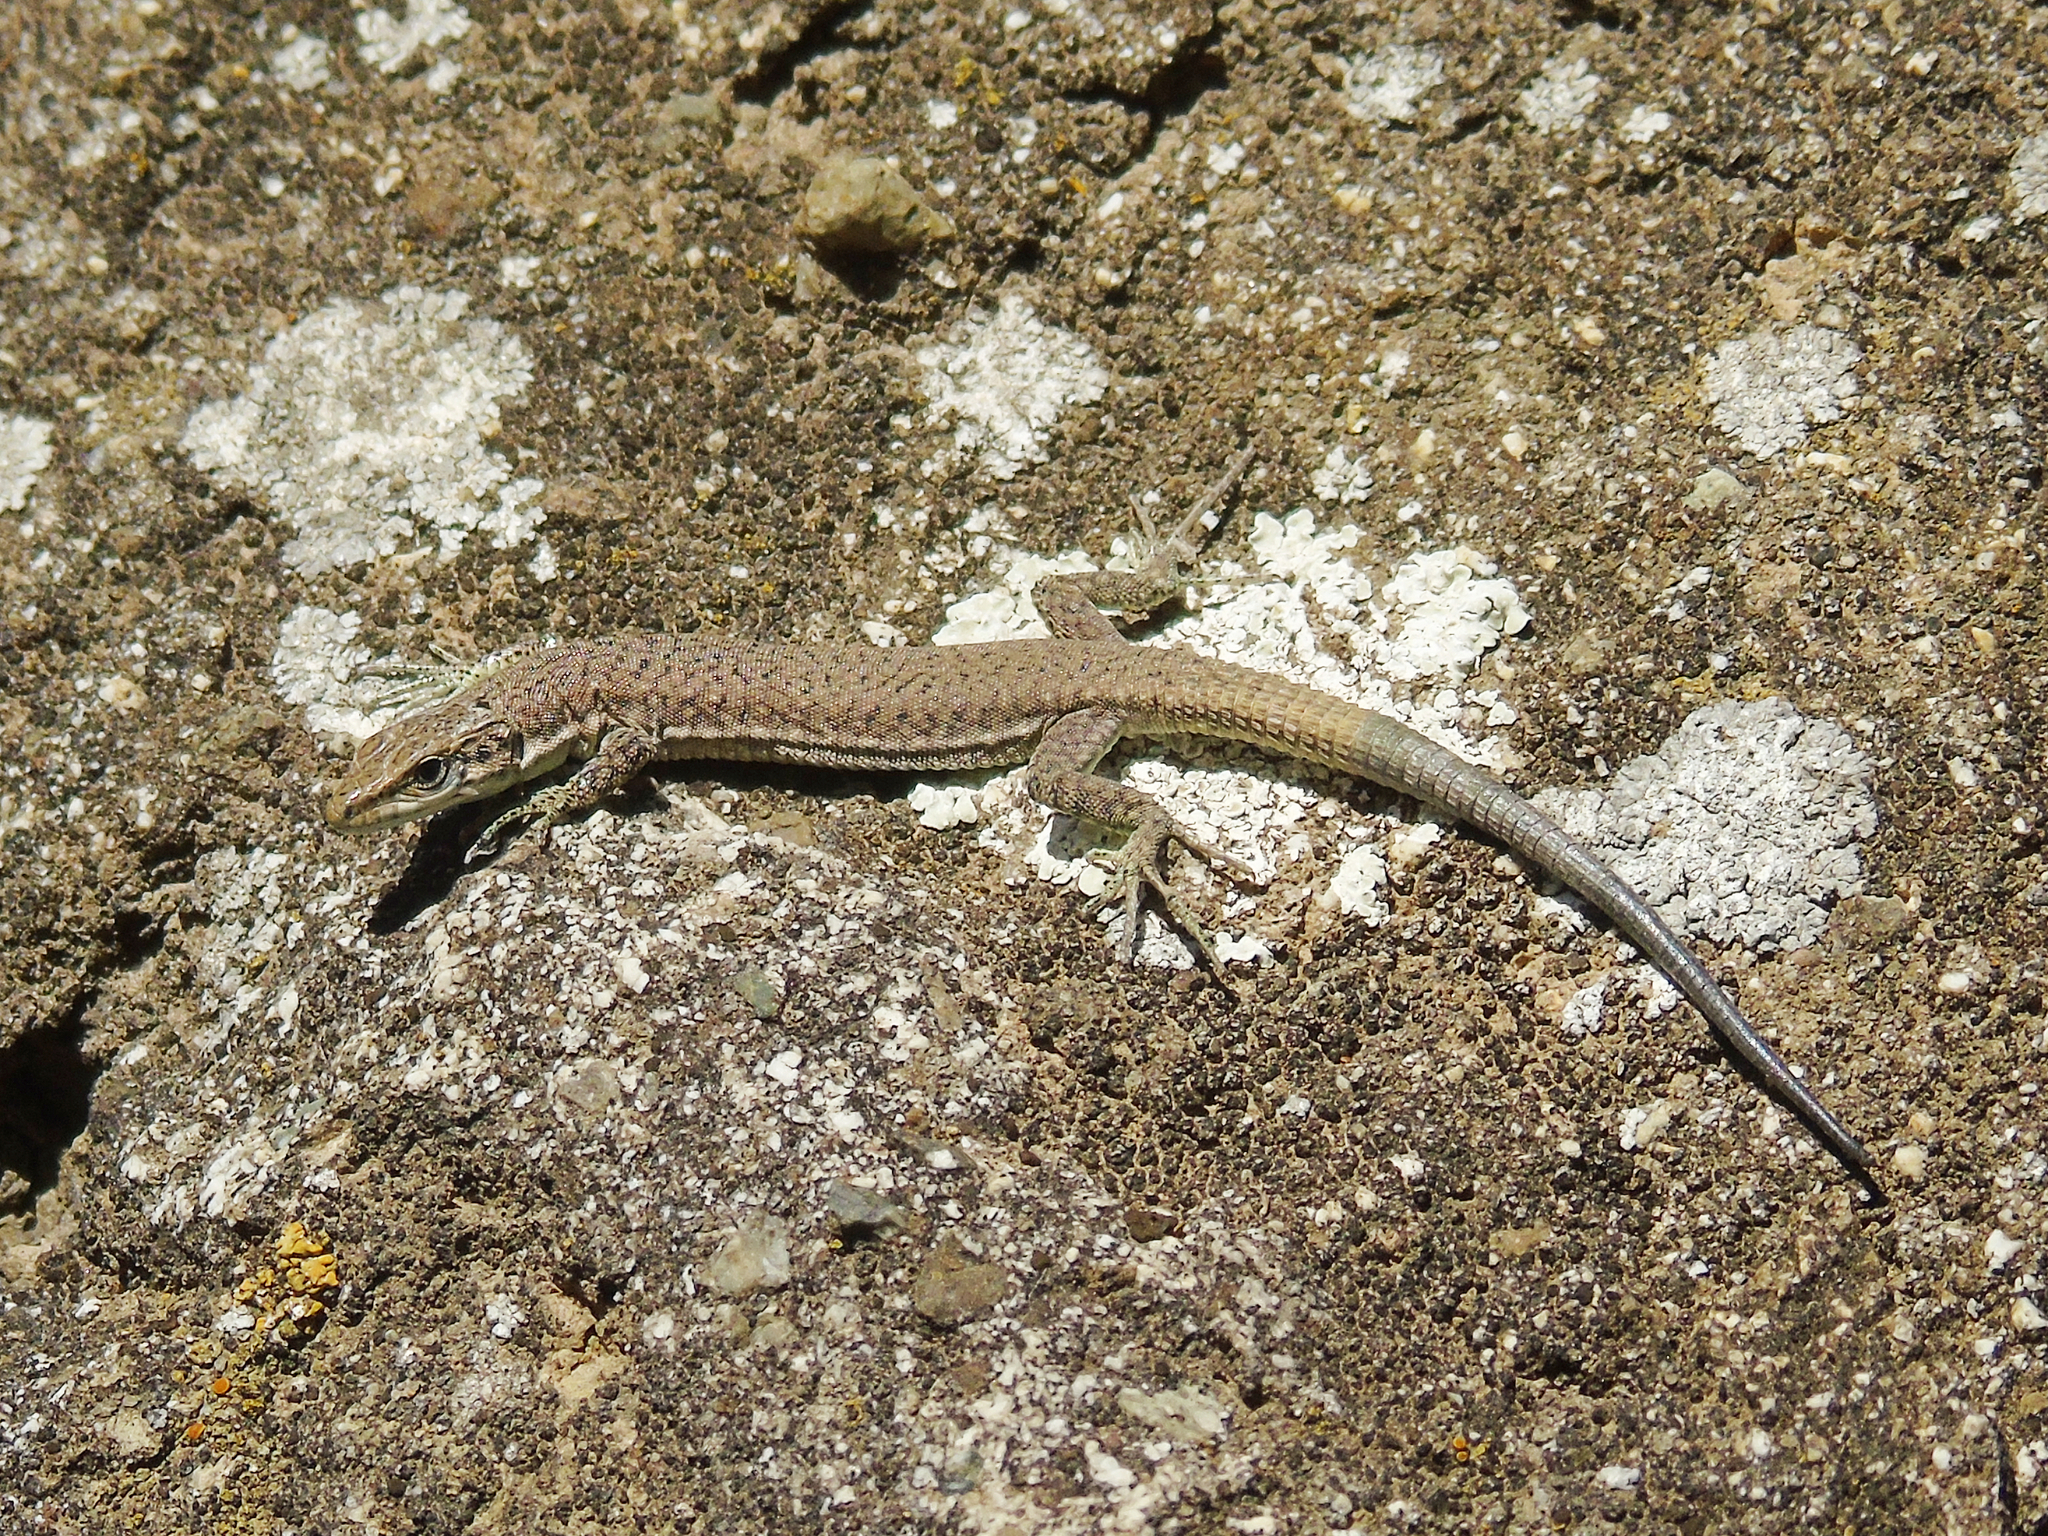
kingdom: Animalia
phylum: Chordata
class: Squamata
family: Lacertidae
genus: Darevskia
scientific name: Darevskia portschinskii
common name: River kura lizard
